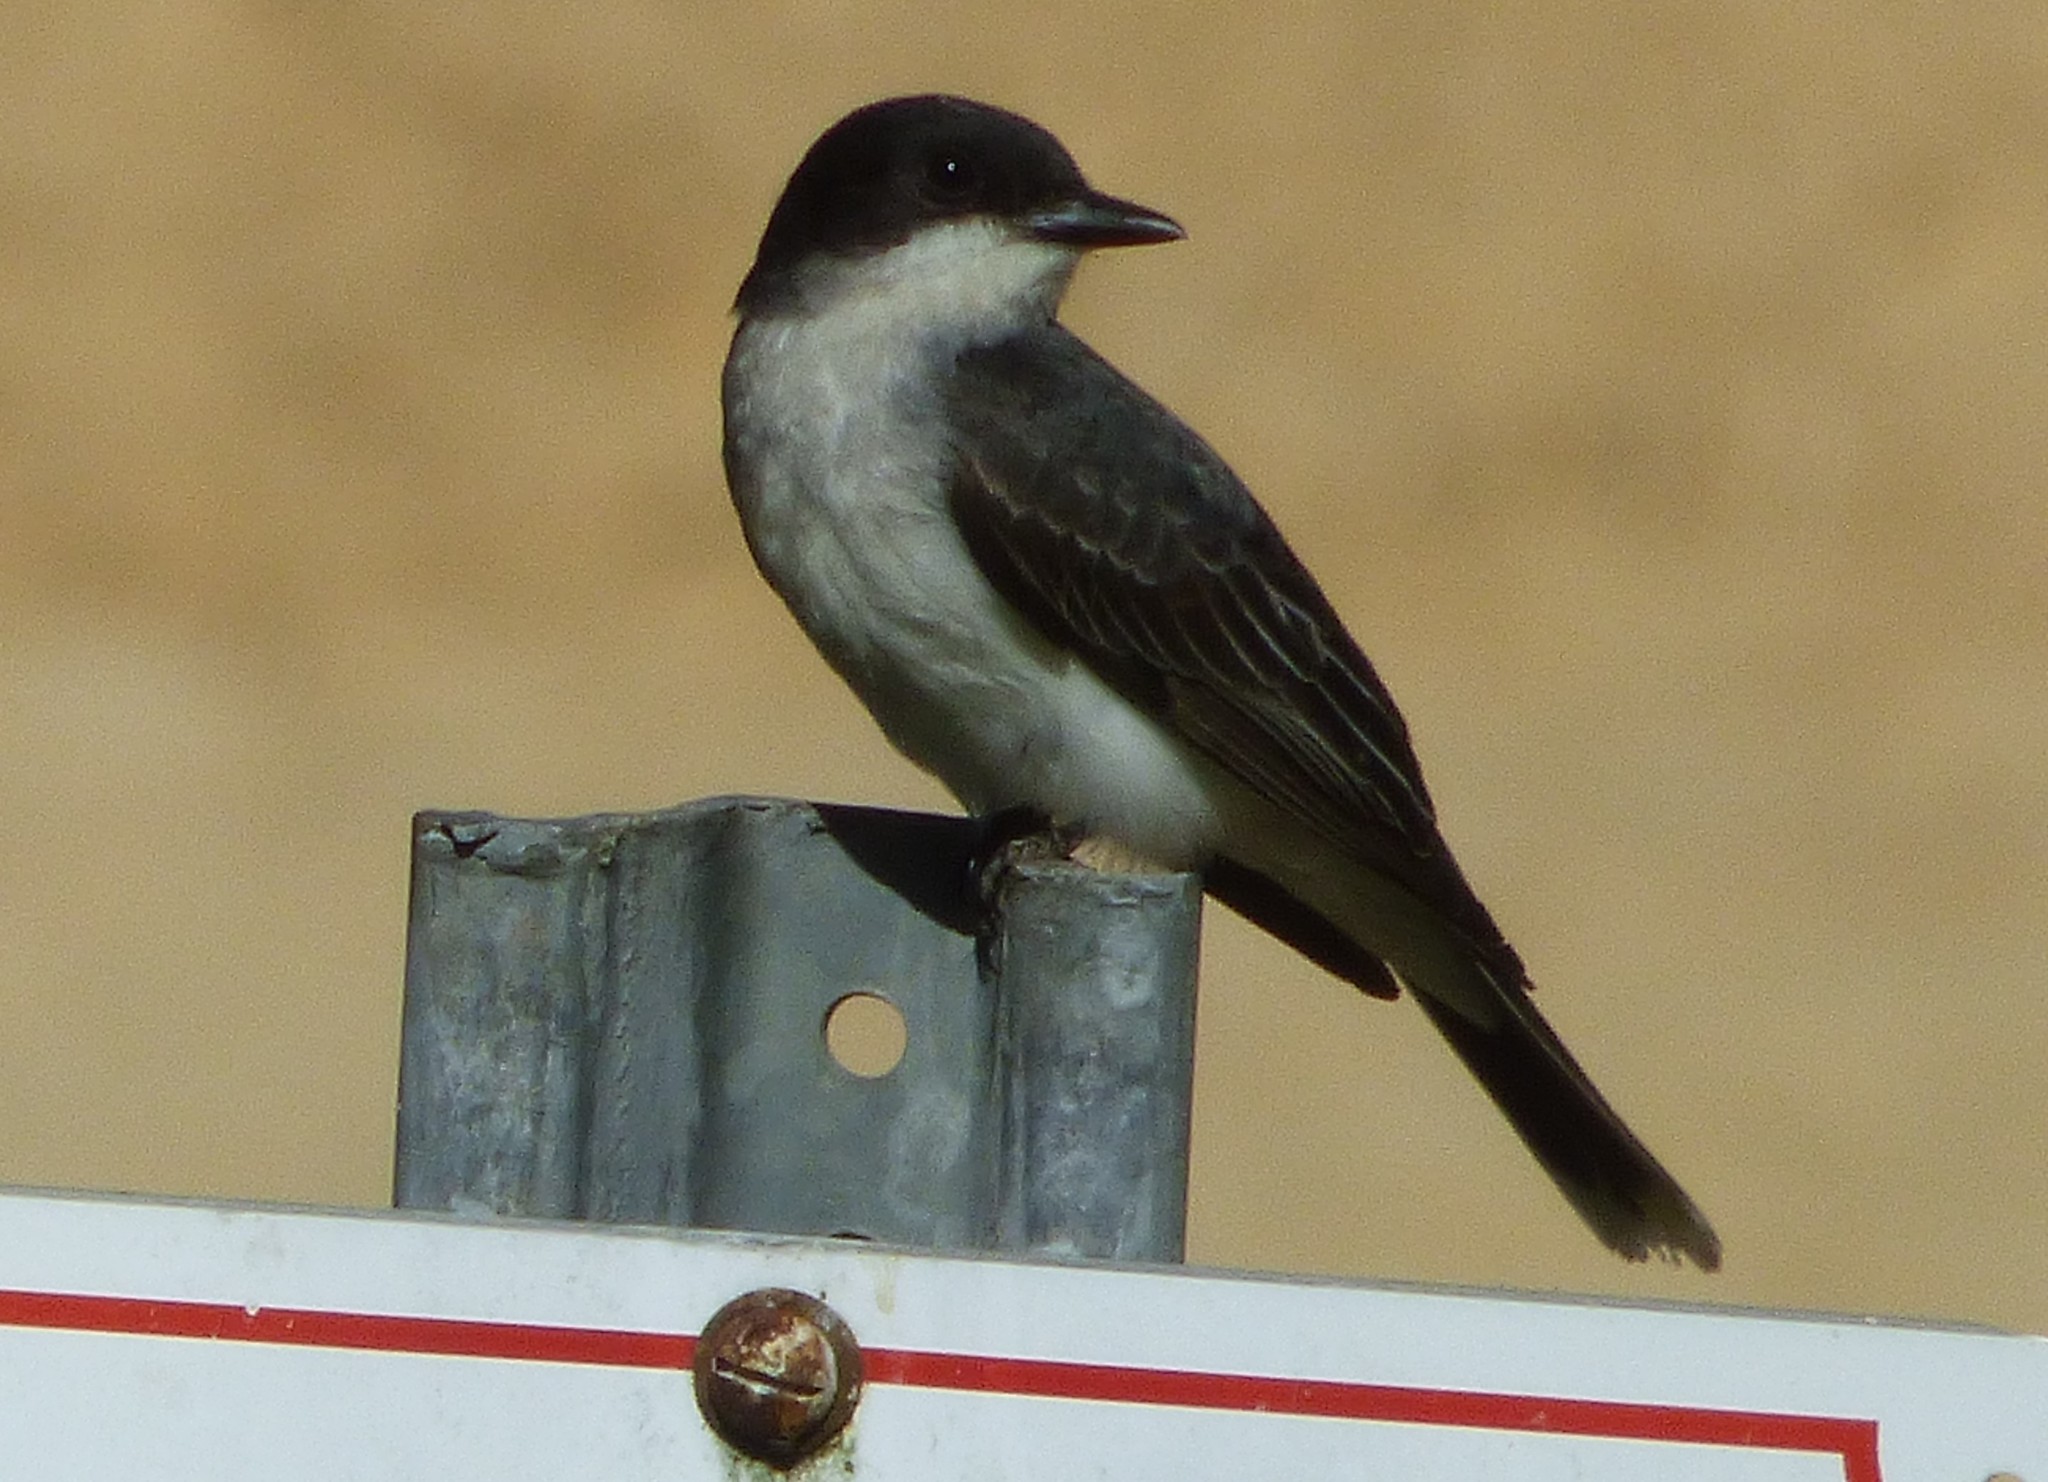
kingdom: Animalia
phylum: Chordata
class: Aves
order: Passeriformes
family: Tyrannidae
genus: Tyrannus
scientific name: Tyrannus tyrannus
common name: Eastern kingbird
